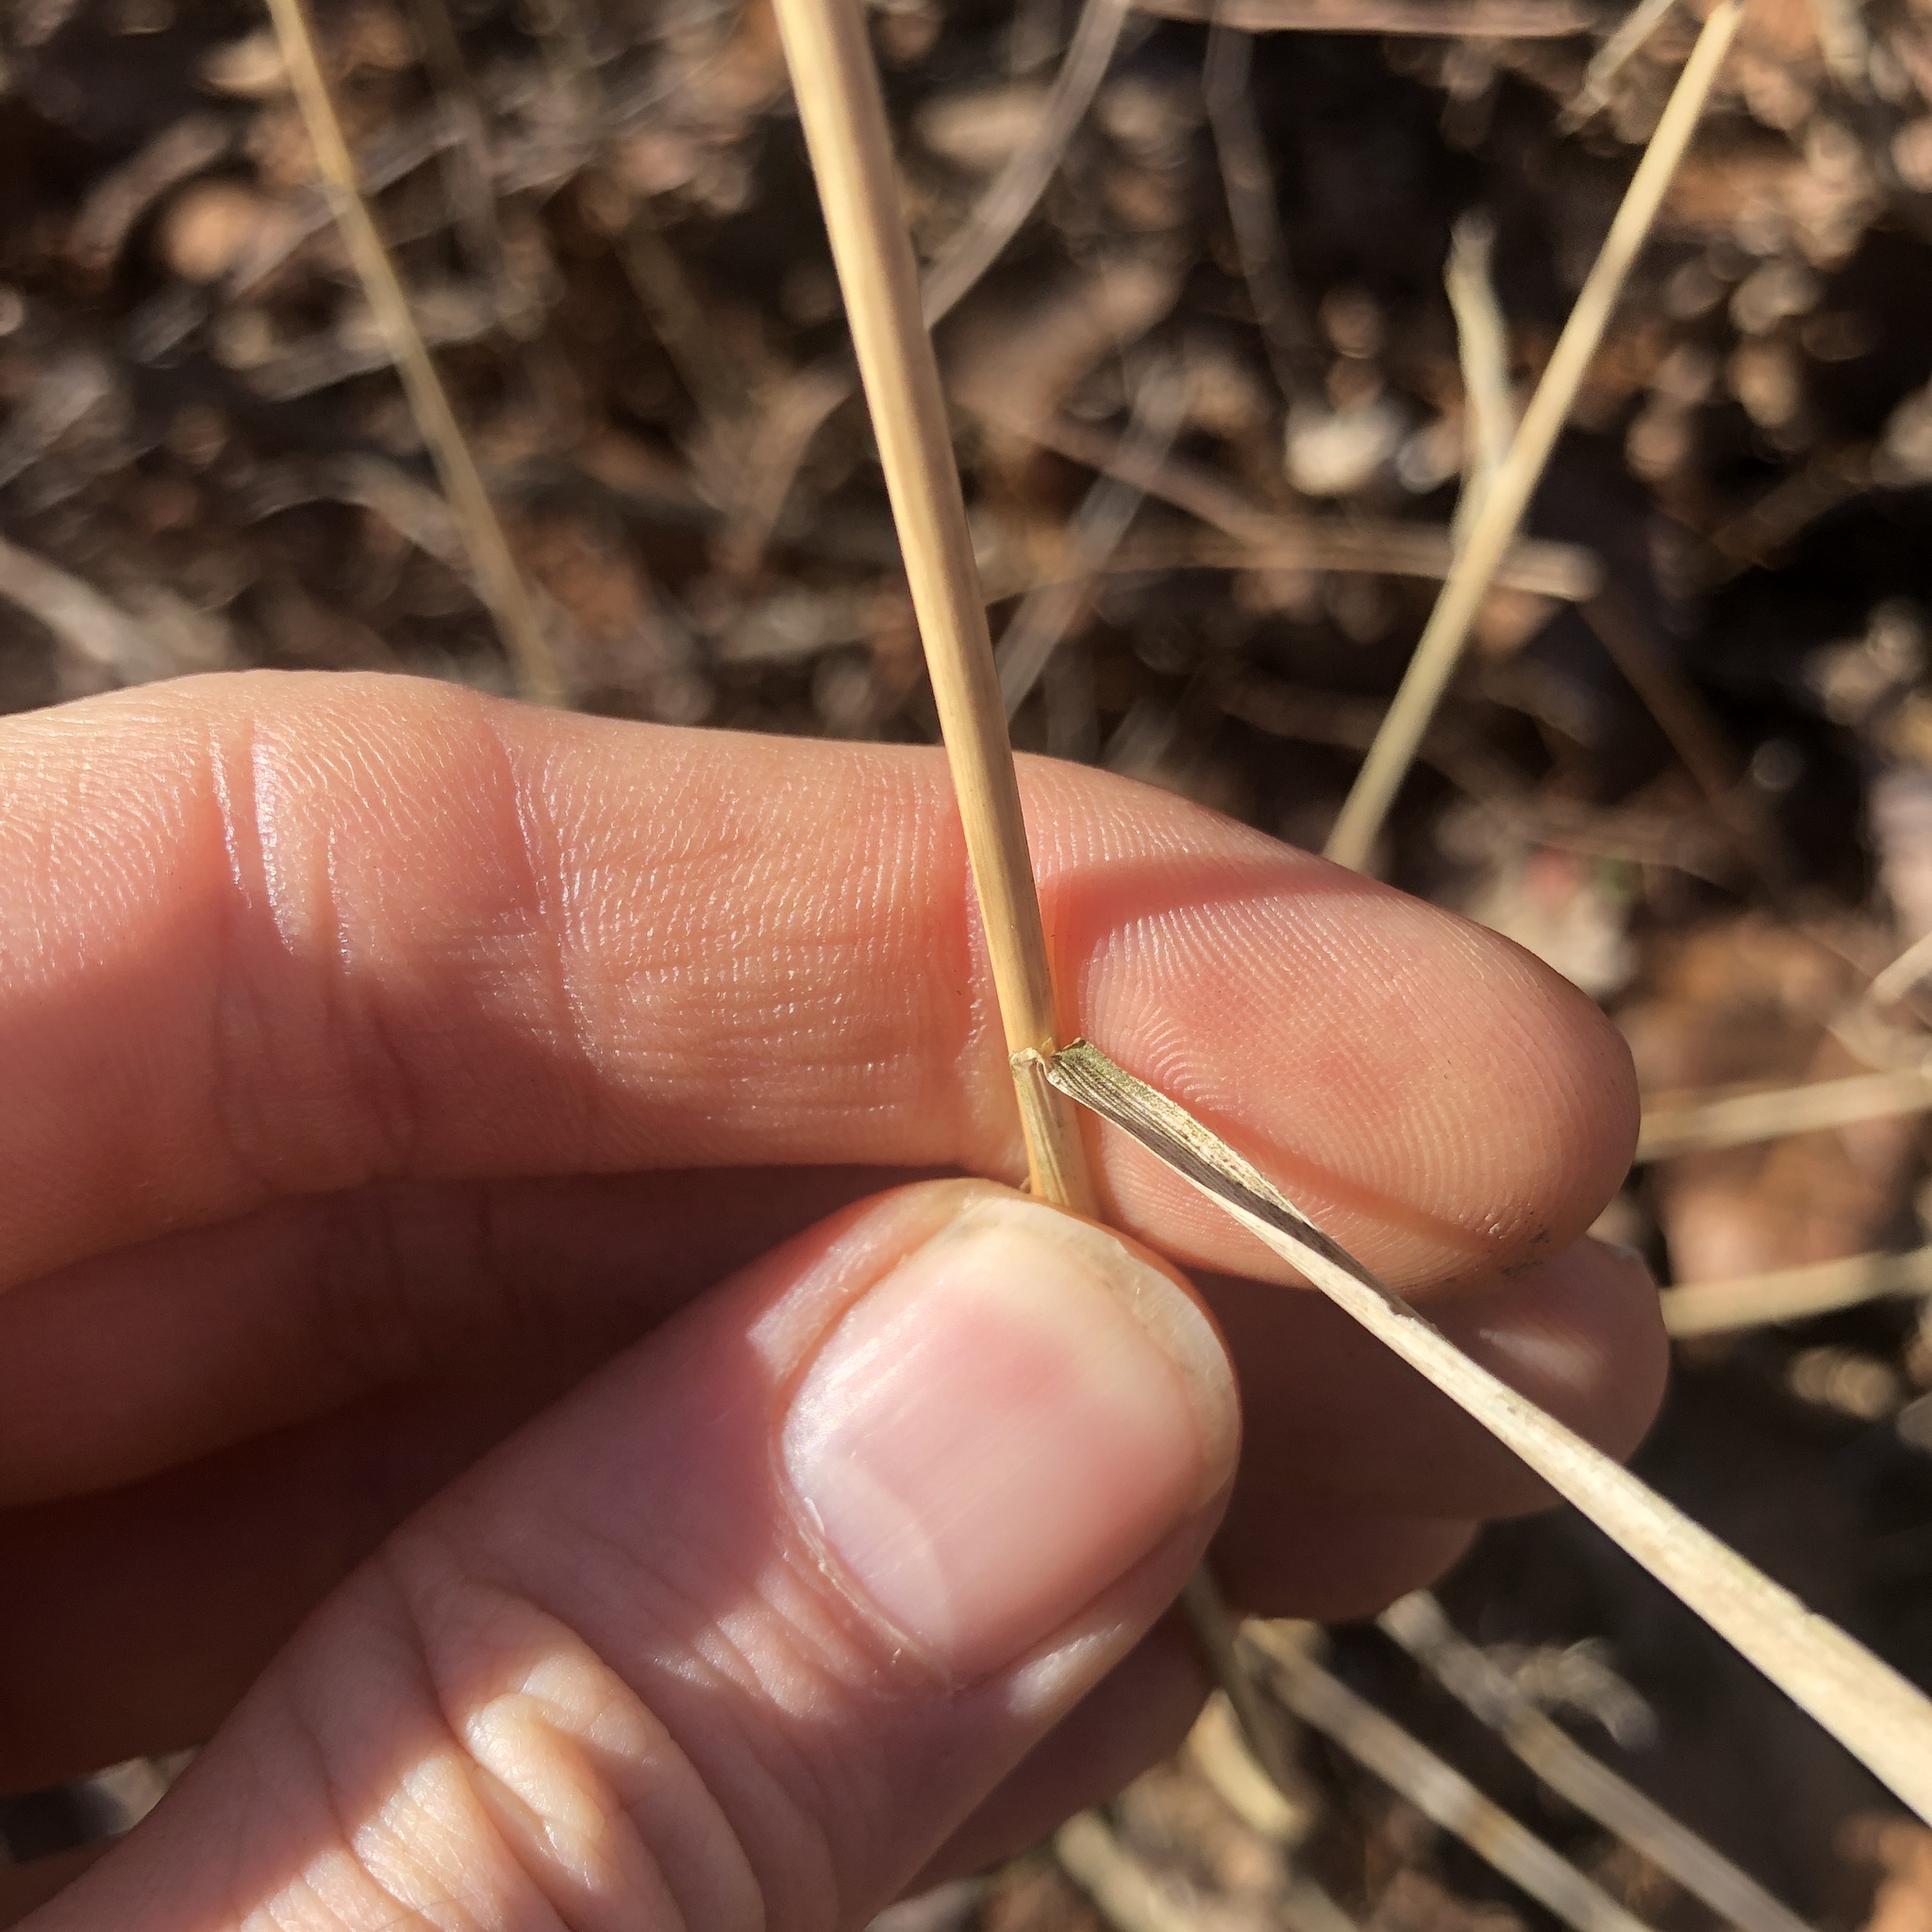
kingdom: Plantae
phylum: Tracheophyta
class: Liliopsida
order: Poales
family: Poaceae
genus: Elymus
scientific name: Elymus virginicus
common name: Common eastern wildrye
